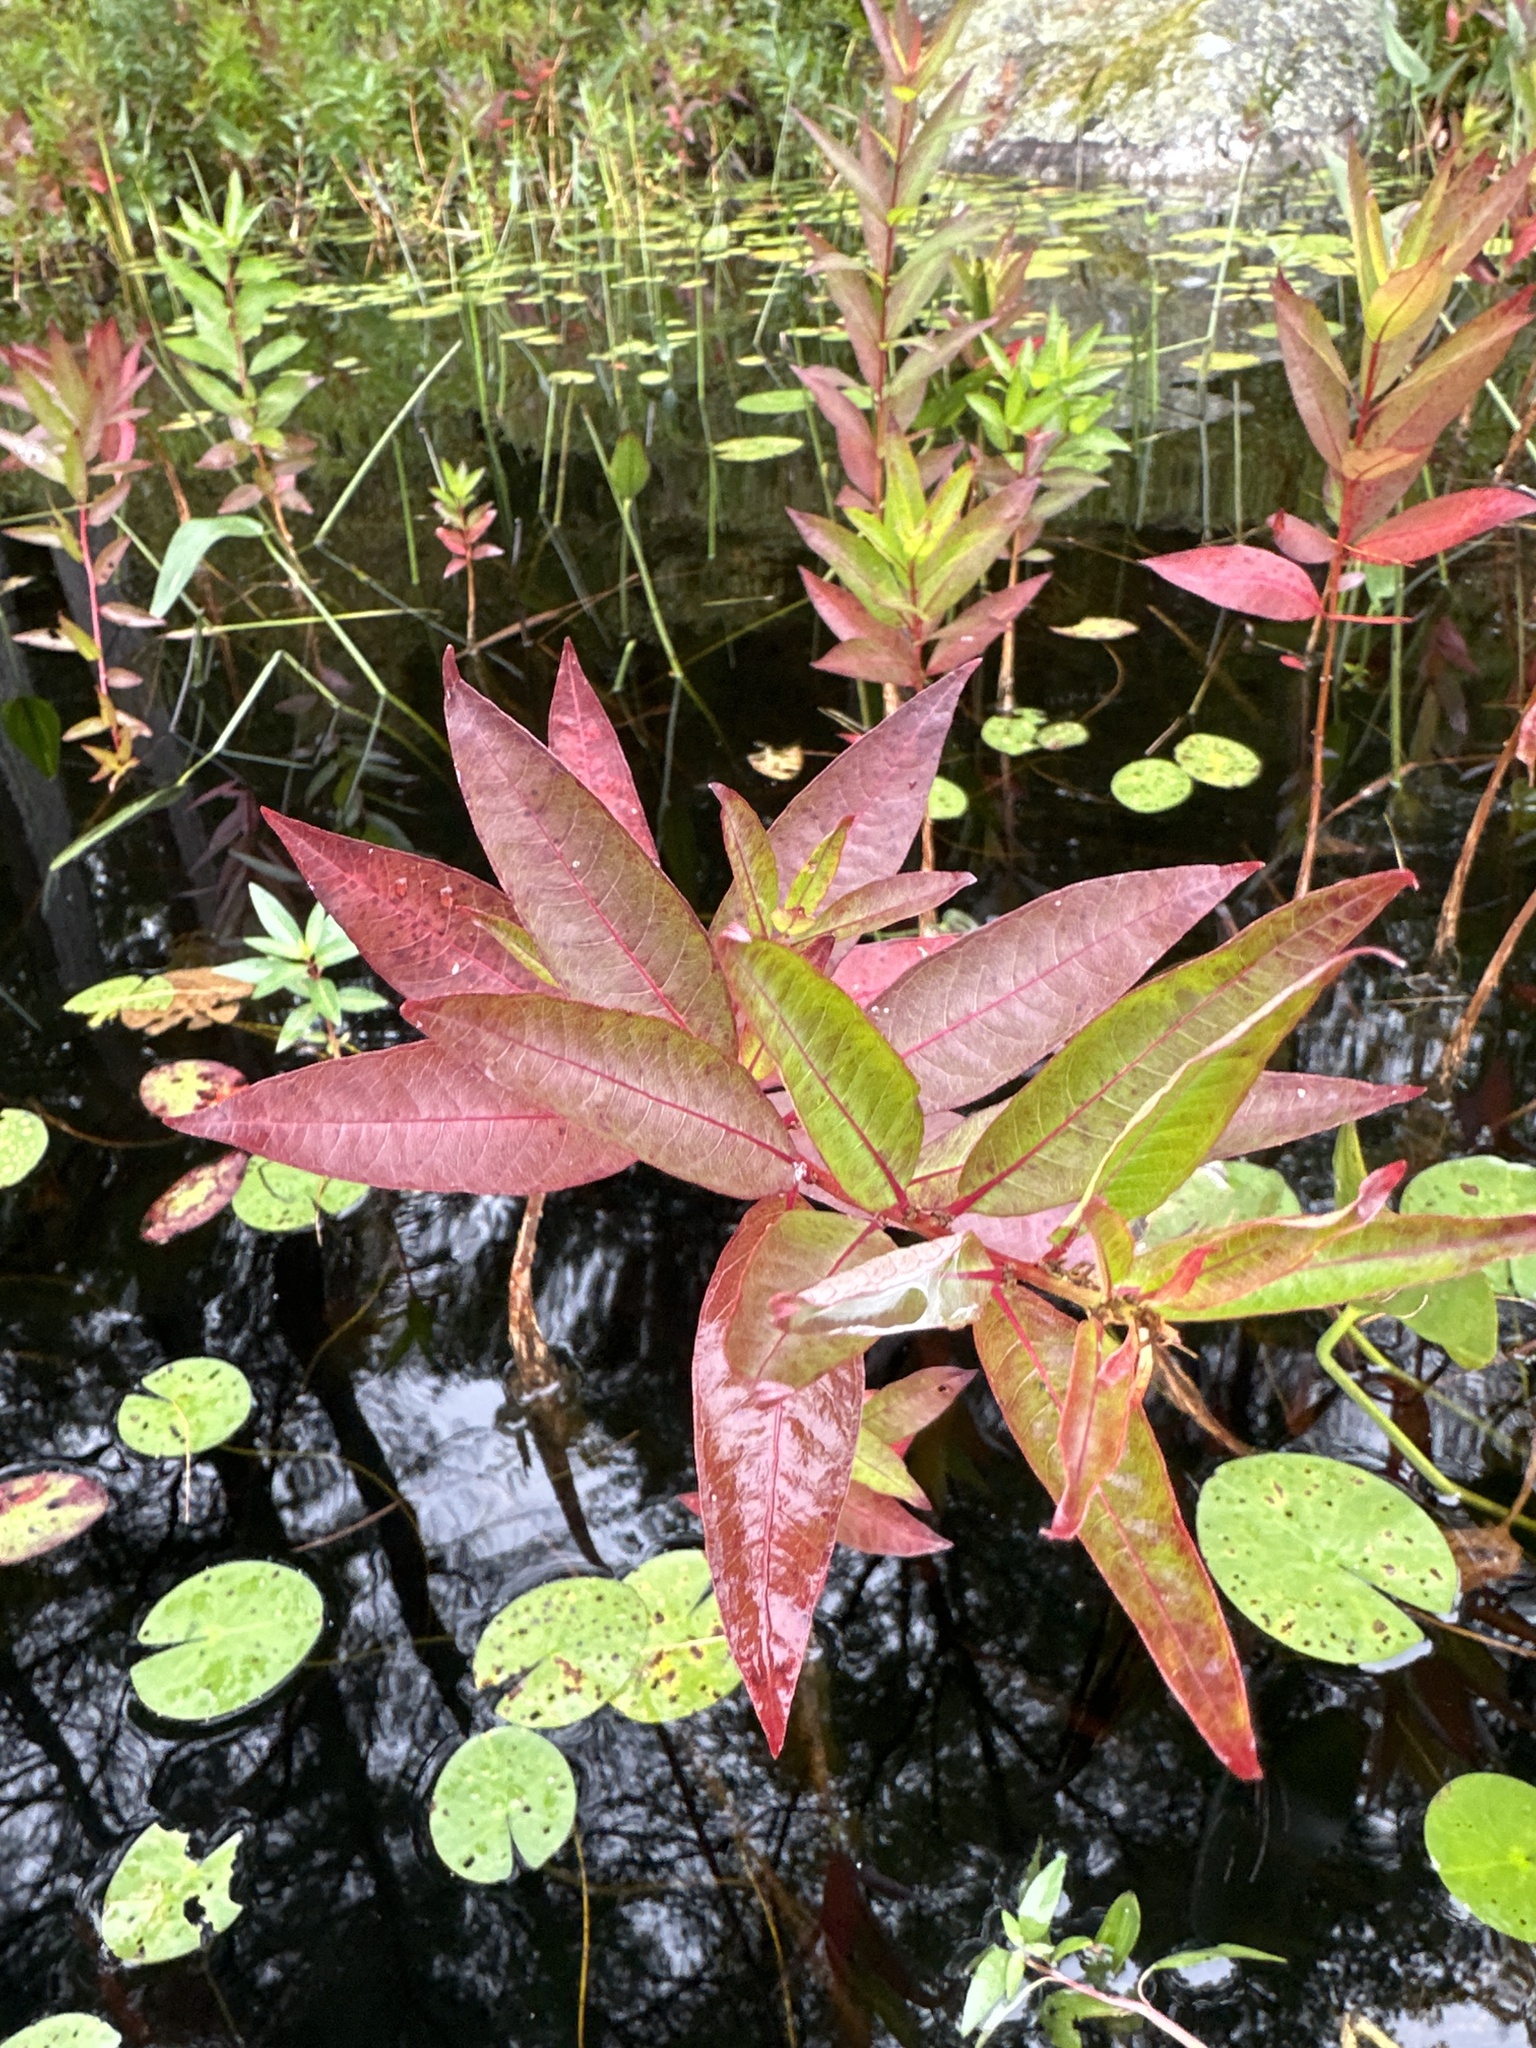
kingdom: Plantae
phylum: Tracheophyta
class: Magnoliopsida
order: Myrtales
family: Lythraceae
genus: Decodon
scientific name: Decodon verticillatus
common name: Hairy swamp loosestrife
